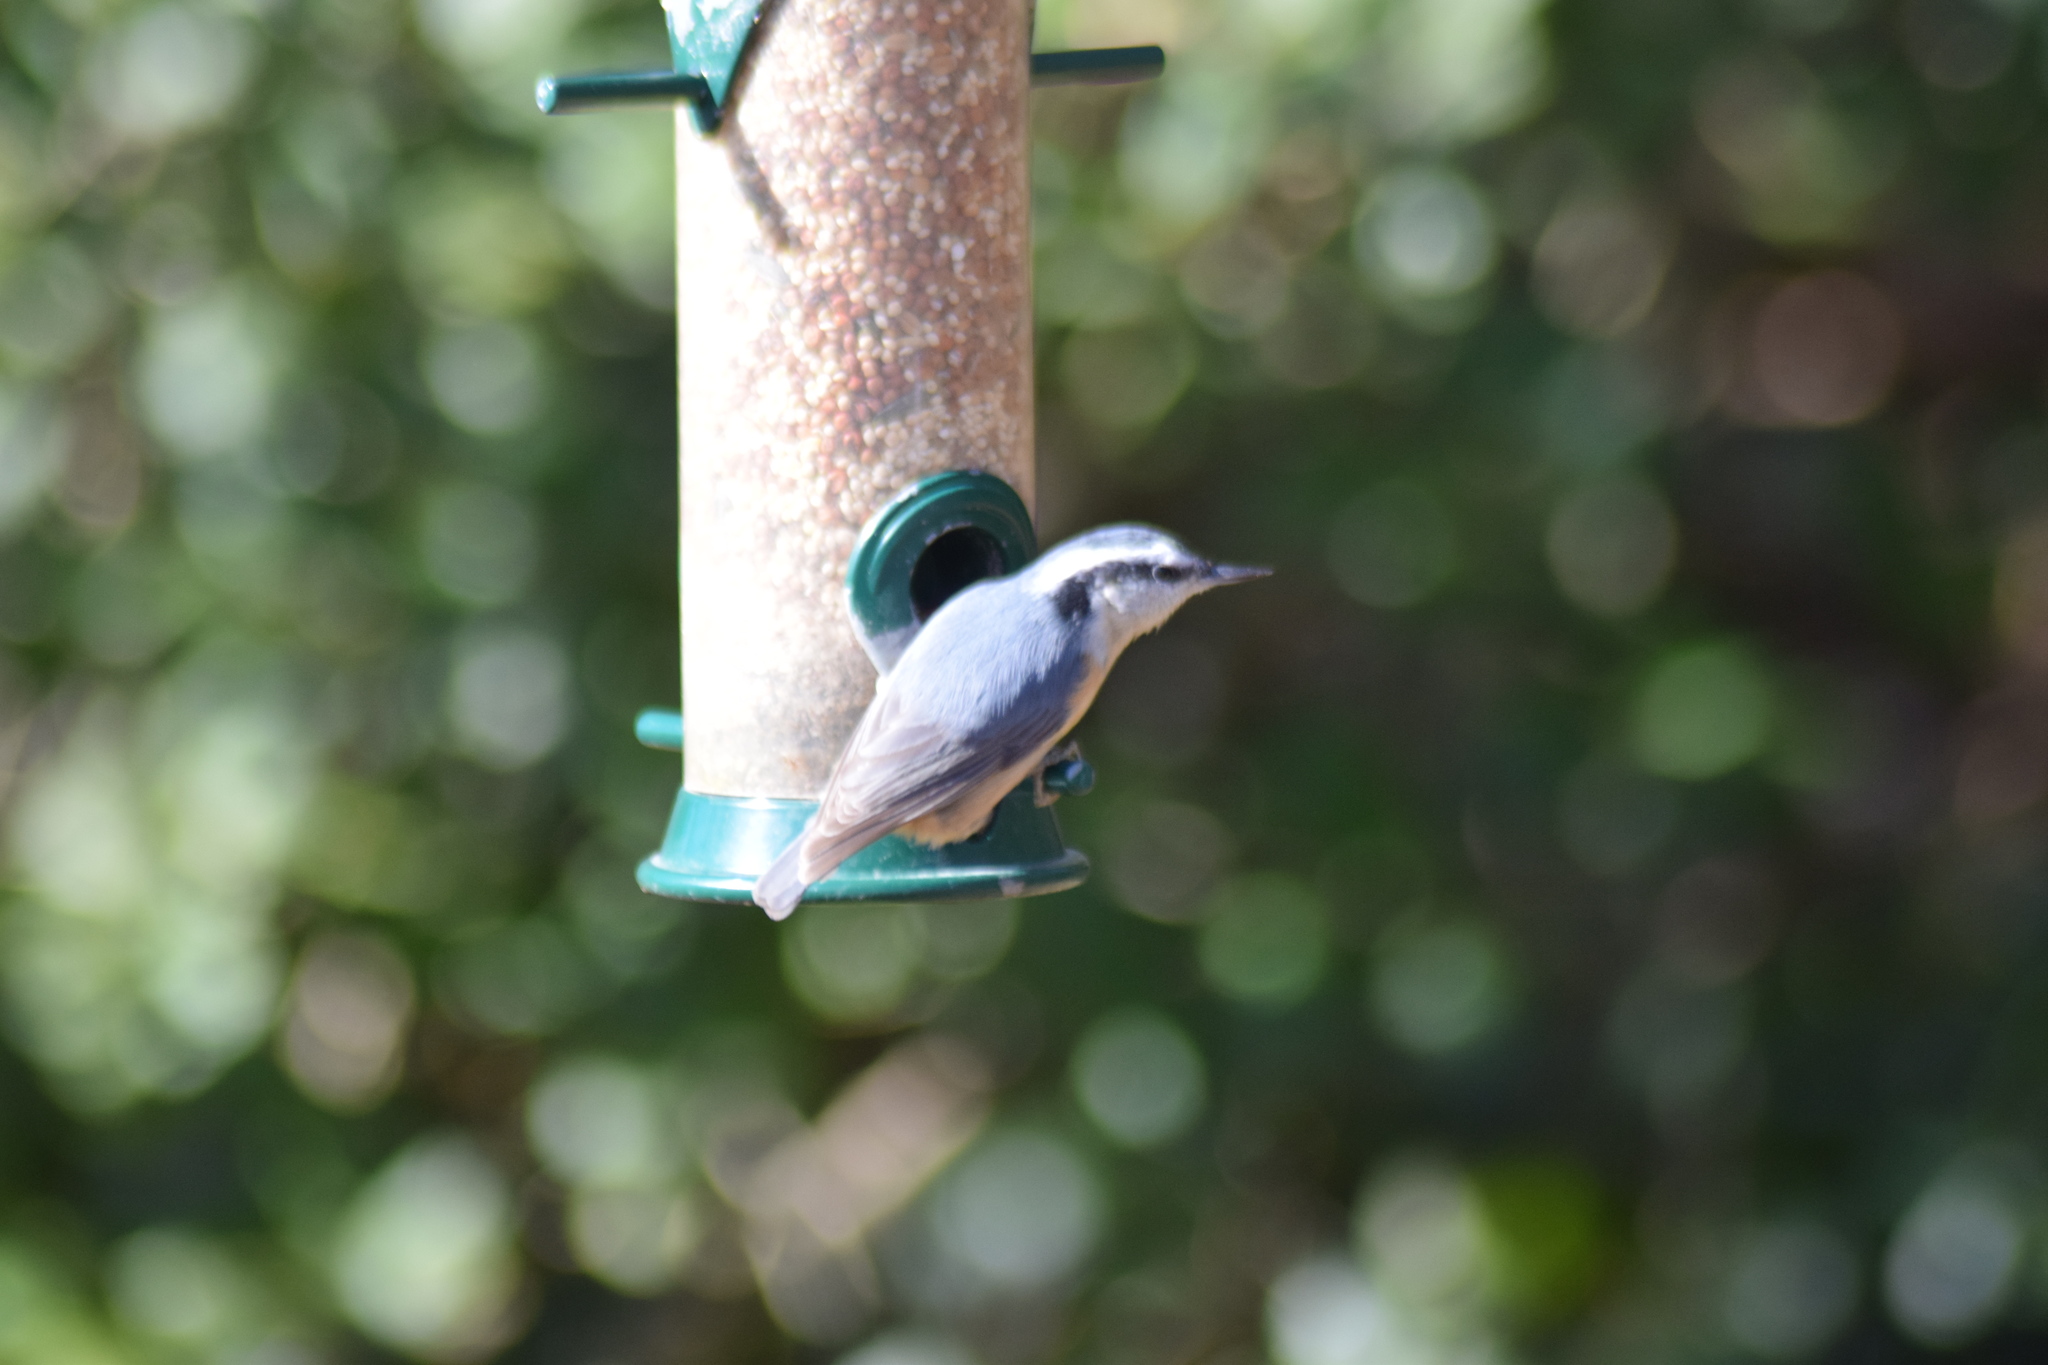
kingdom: Animalia
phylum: Chordata
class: Aves
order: Passeriformes
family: Sittidae
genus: Sitta
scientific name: Sitta canadensis
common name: Red-breasted nuthatch
